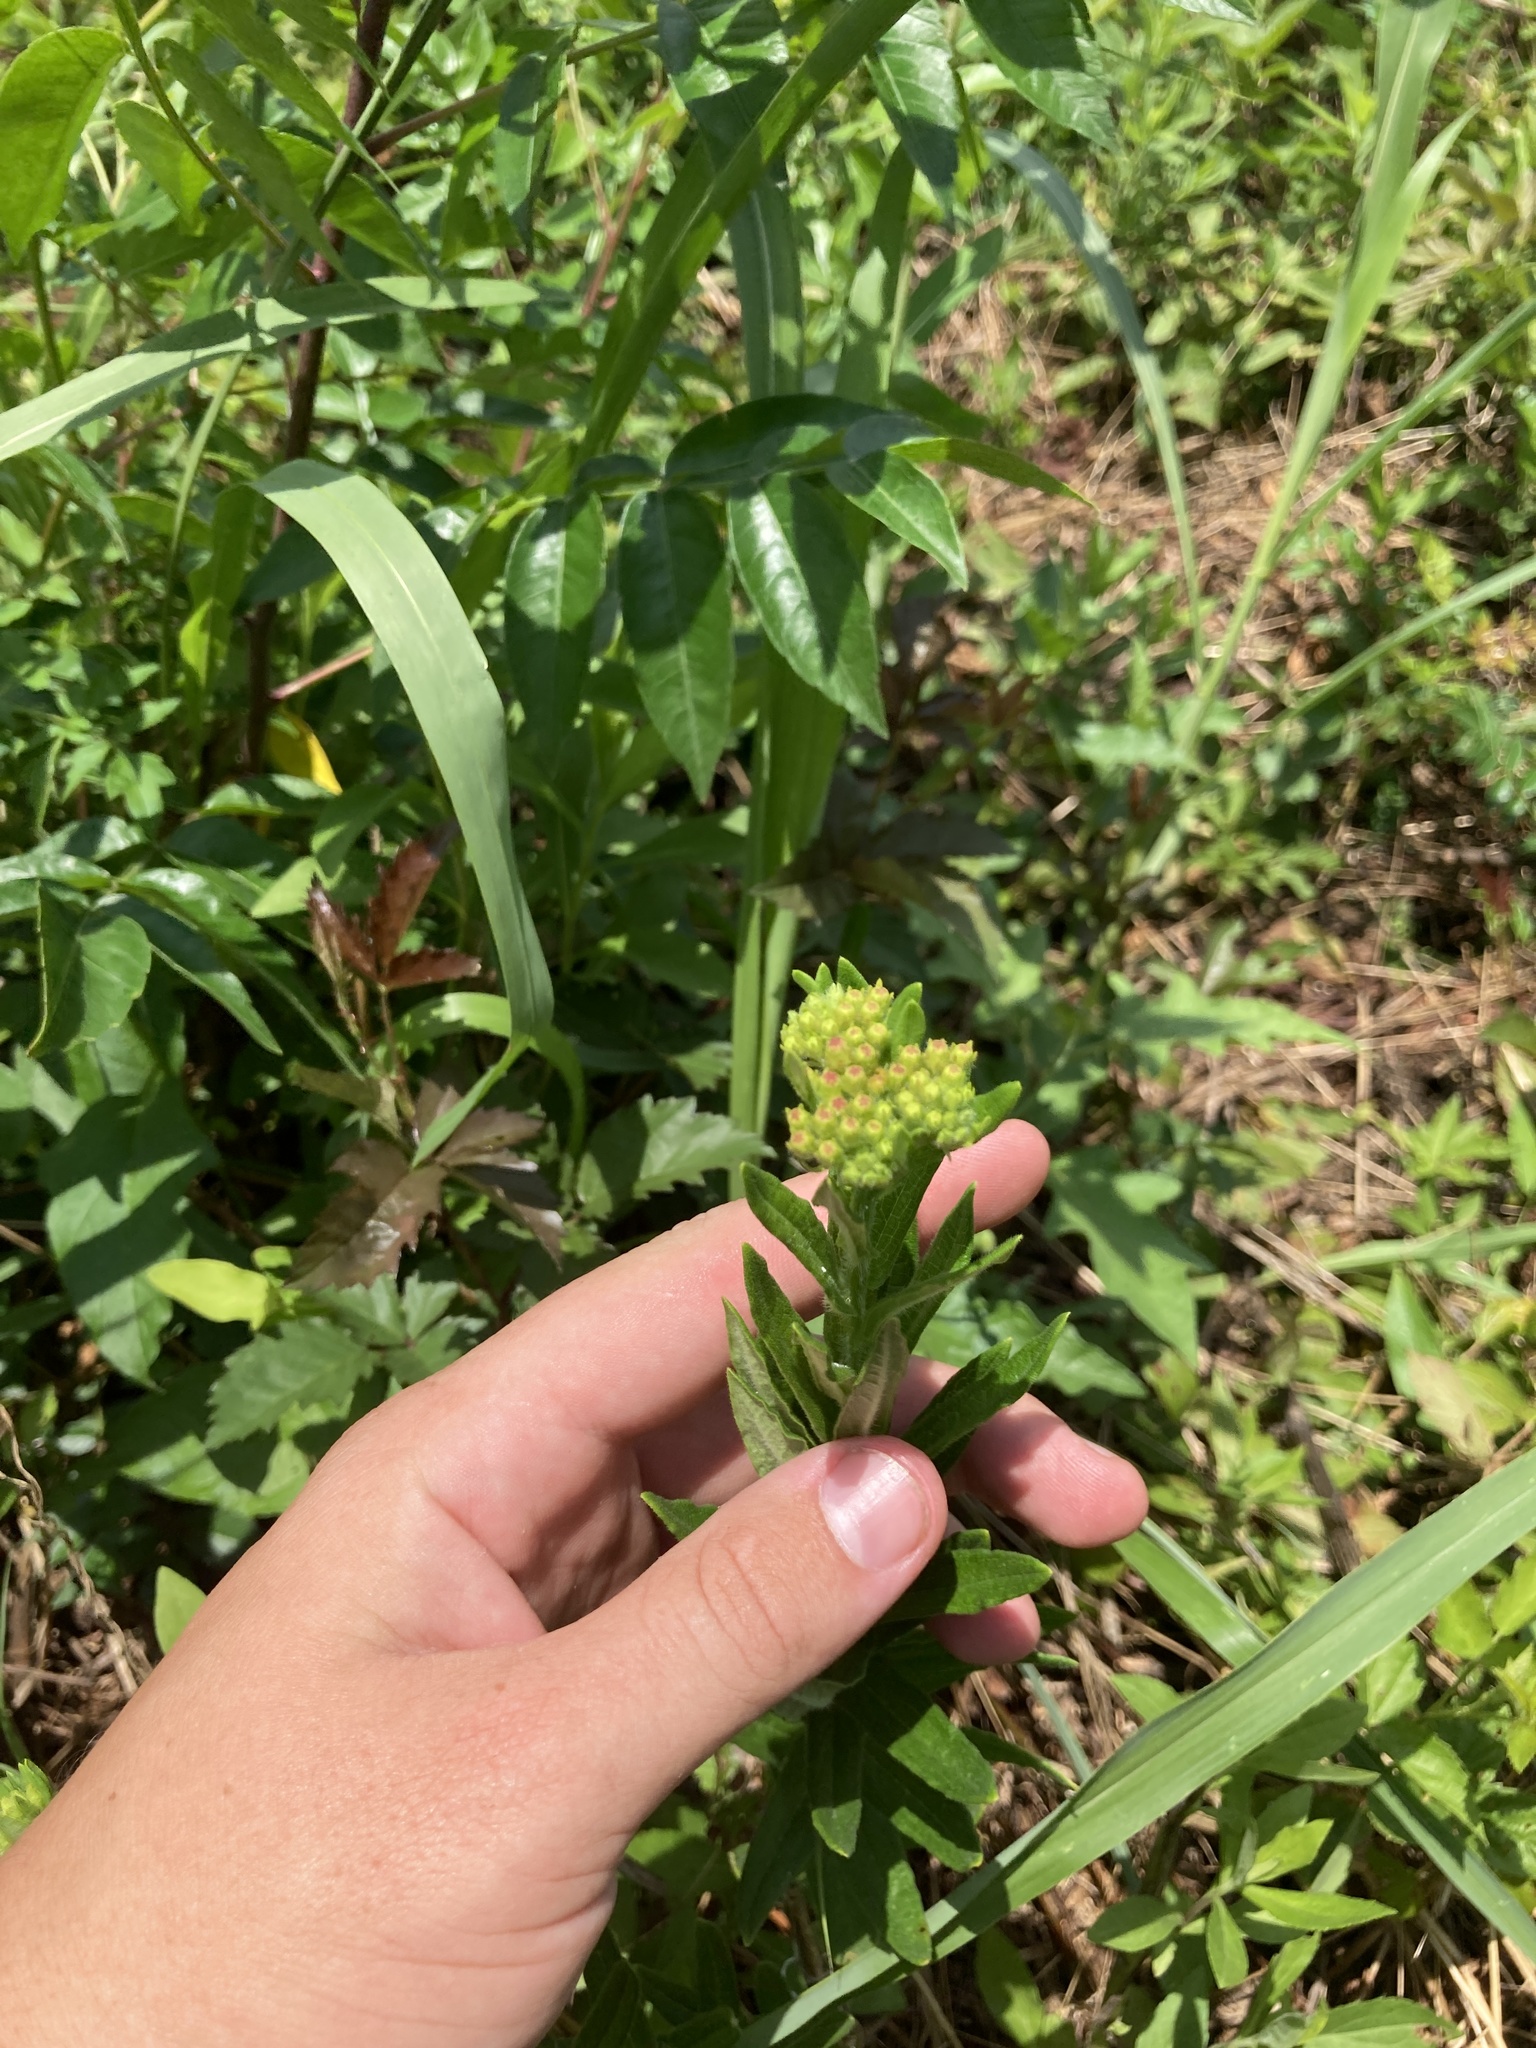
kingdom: Plantae
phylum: Tracheophyta
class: Magnoliopsida
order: Gentianales
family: Apocynaceae
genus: Asclepias
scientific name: Asclepias tuberosa
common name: Butterfly milkweed
